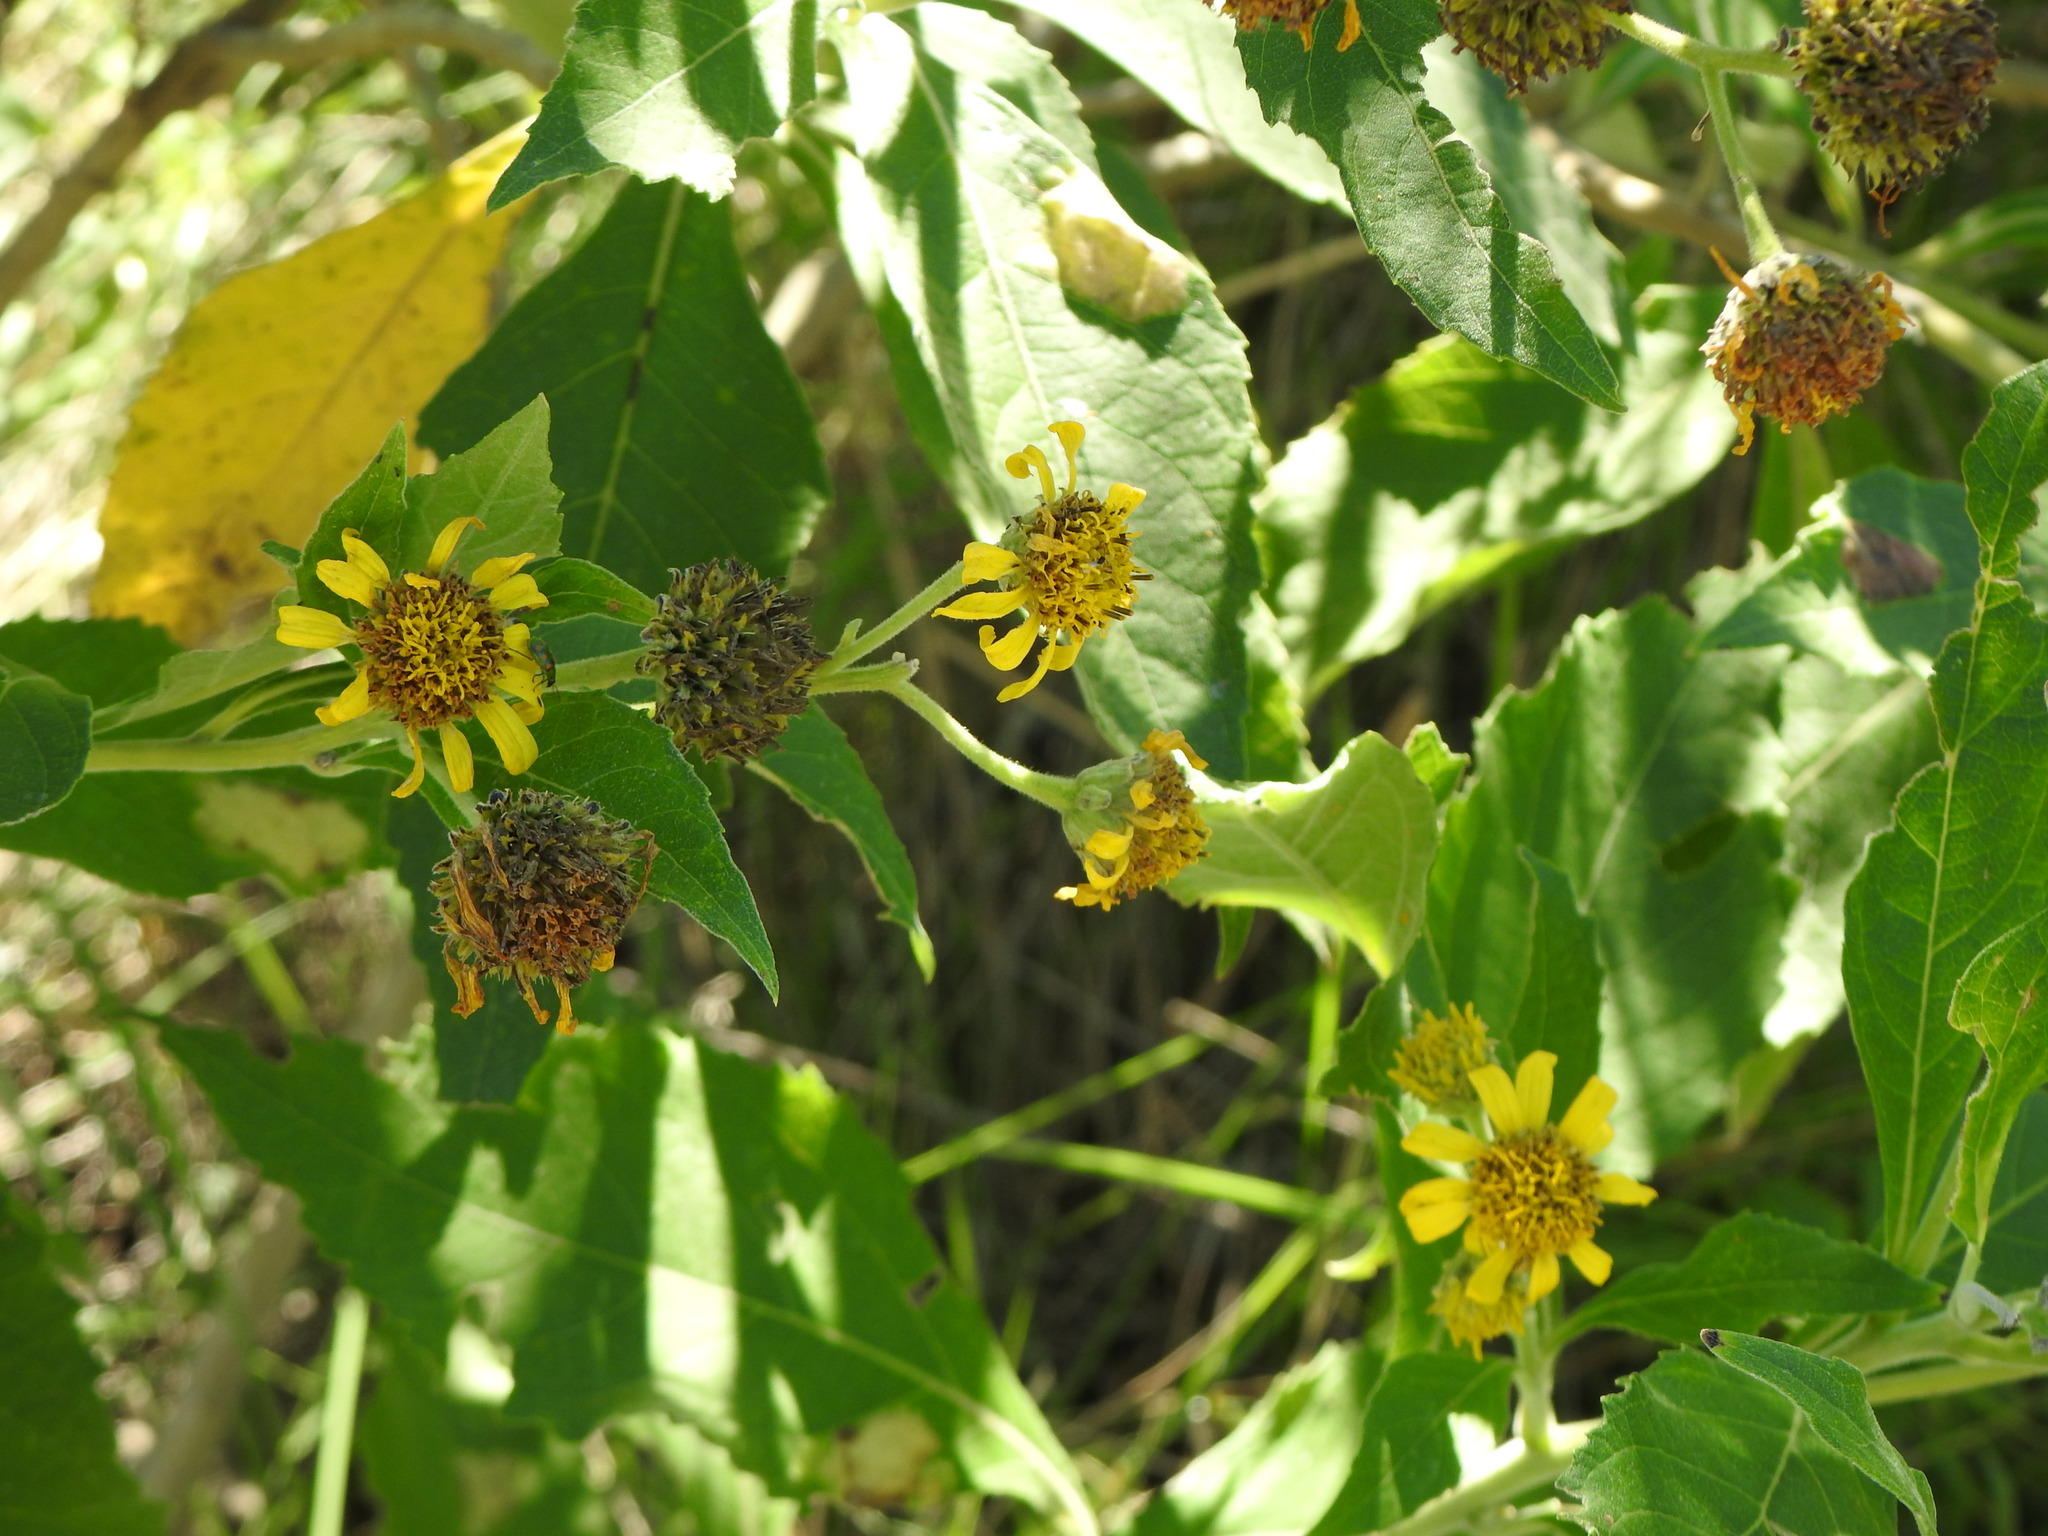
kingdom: Plantae
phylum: Tracheophyta
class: Magnoliopsida
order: Asterales
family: Asteraceae
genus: Verbesina
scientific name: Verbesina subcordata
